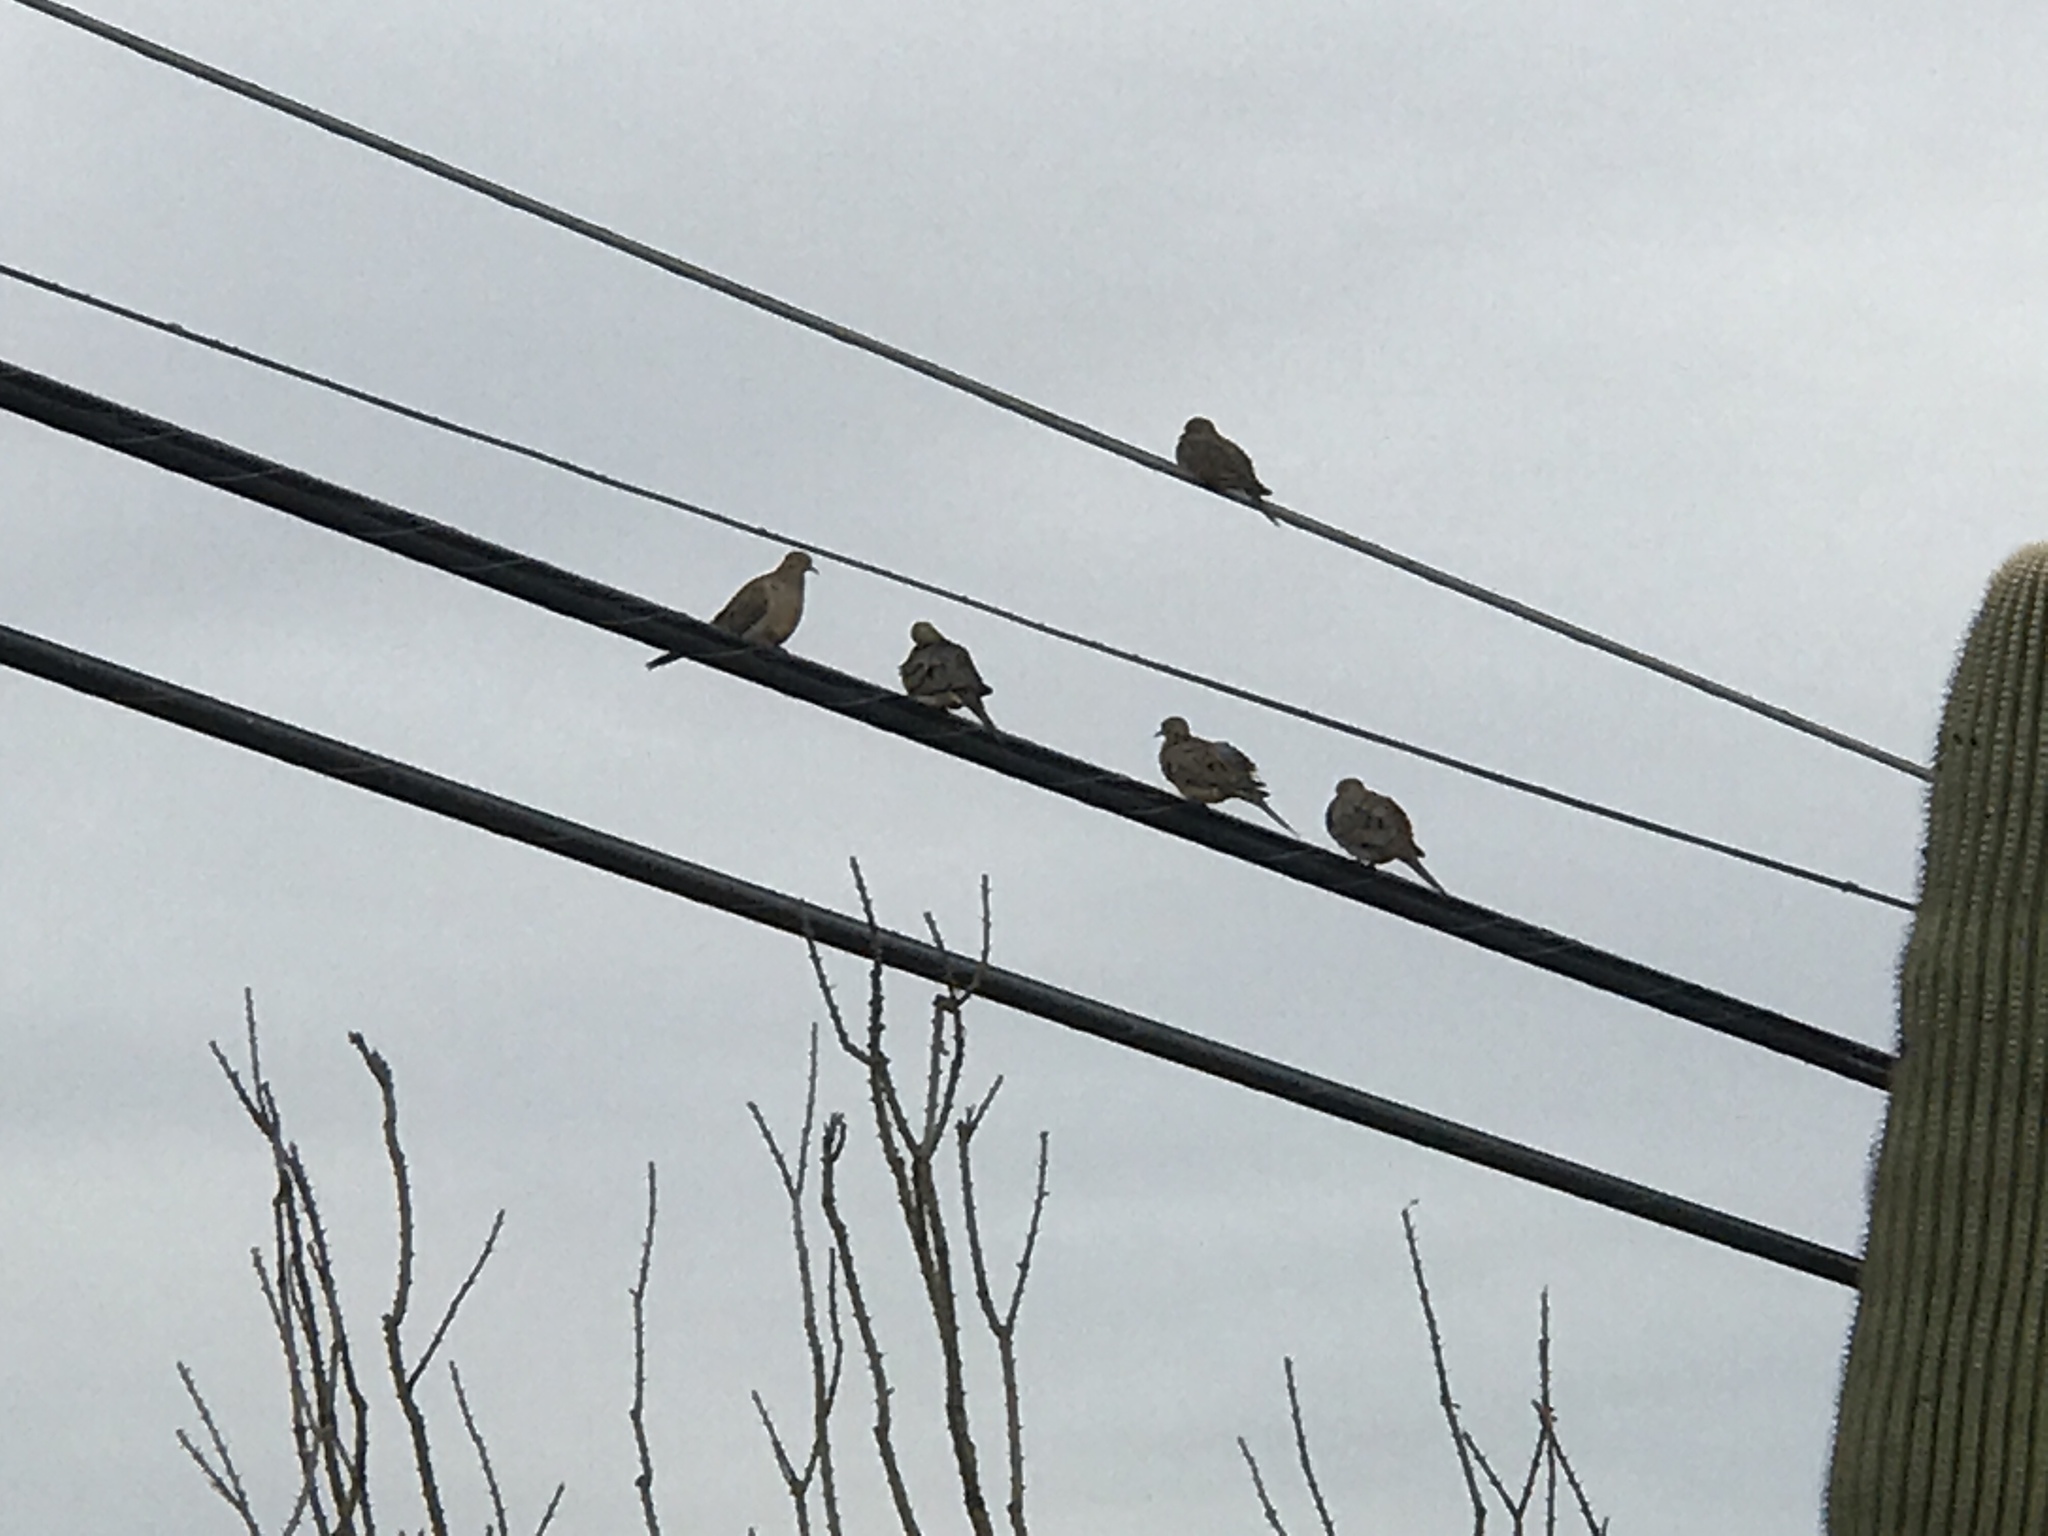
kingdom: Animalia
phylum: Chordata
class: Aves
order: Columbiformes
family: Columbidae
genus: Zenaida
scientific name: Zenaida macroura
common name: Mourning dove
